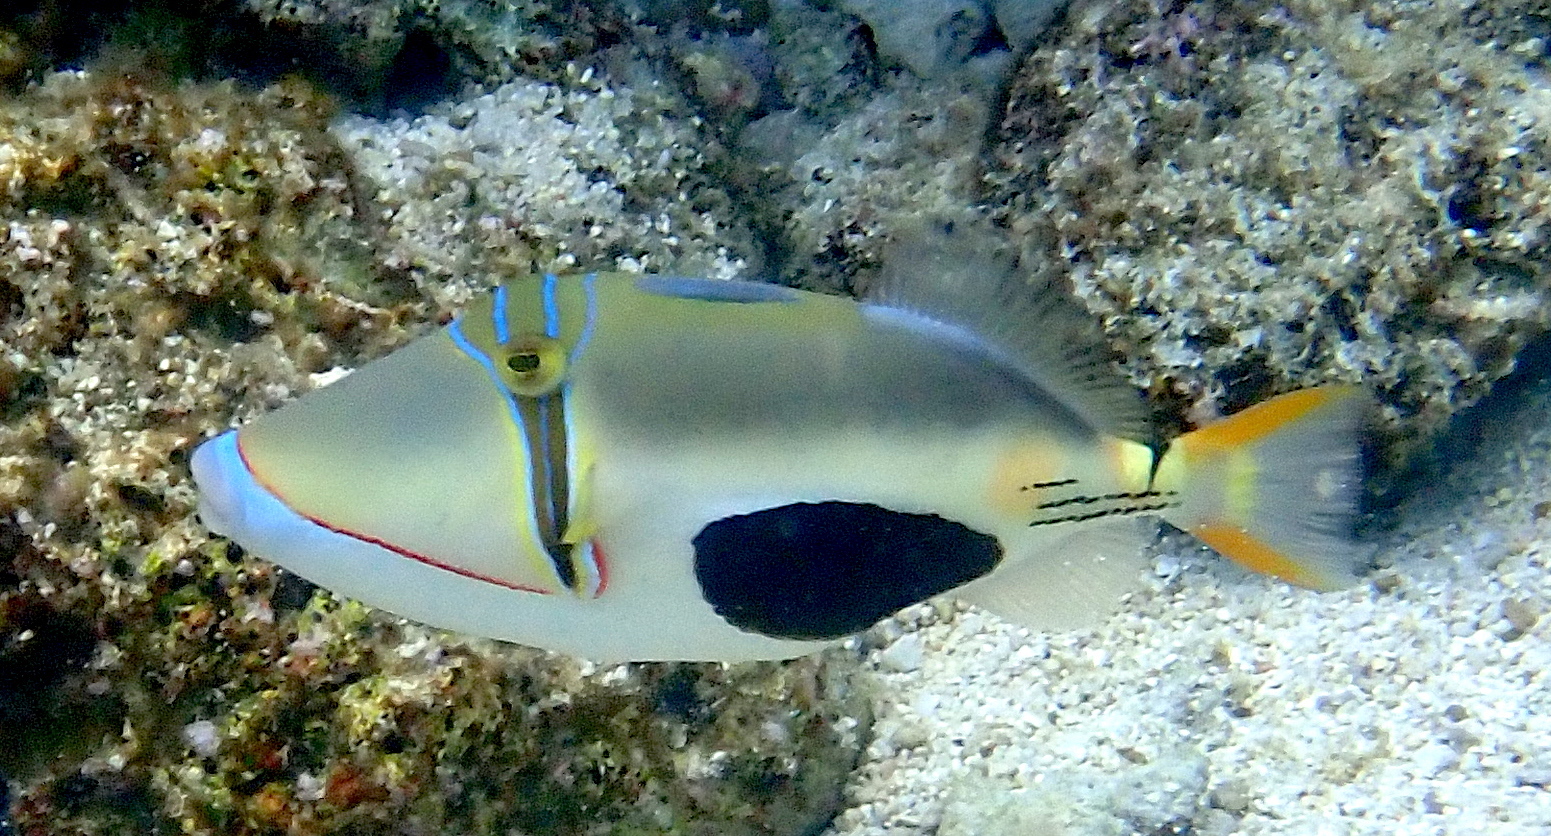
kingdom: Animalia
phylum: Chordata
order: Tetraodontiformes
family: Balistidae
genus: Rhinecanthus
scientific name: Rhinecanthus verrucosus
